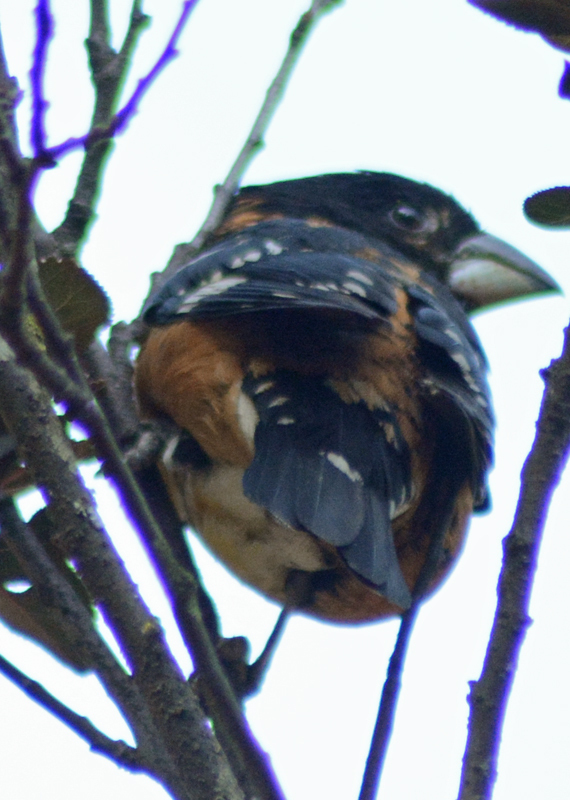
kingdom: Animalia
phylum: Chordata
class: Aves
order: Passeriformes
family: Cardinalidae
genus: Pheucticus
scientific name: Pheucticus melanocephalus
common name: Black-headed grosbeak
